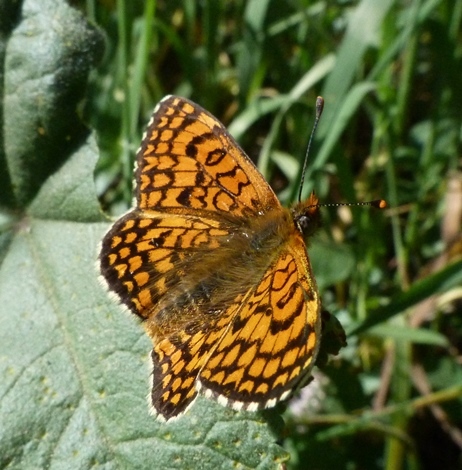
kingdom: Animalia
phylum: Arthropoda
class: Insecta
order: Lepidoptera
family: Nymphalidae
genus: Melitaea
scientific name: Melitaea deione
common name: Provençal fritillary
